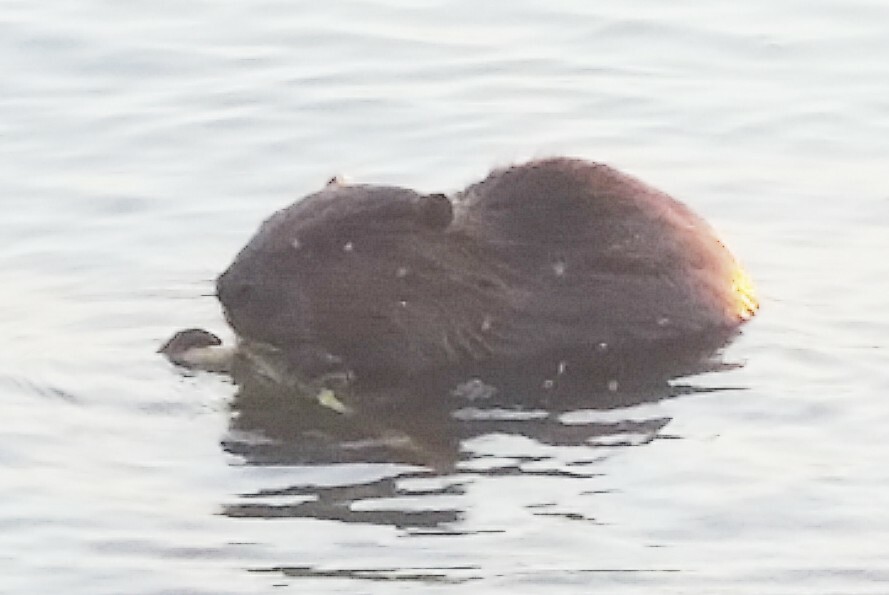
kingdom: Animalia
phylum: Chordata
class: Mammalia
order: Rodentia
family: Castoridae
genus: Castor
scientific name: Castor fiber
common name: Eurasian beaver
